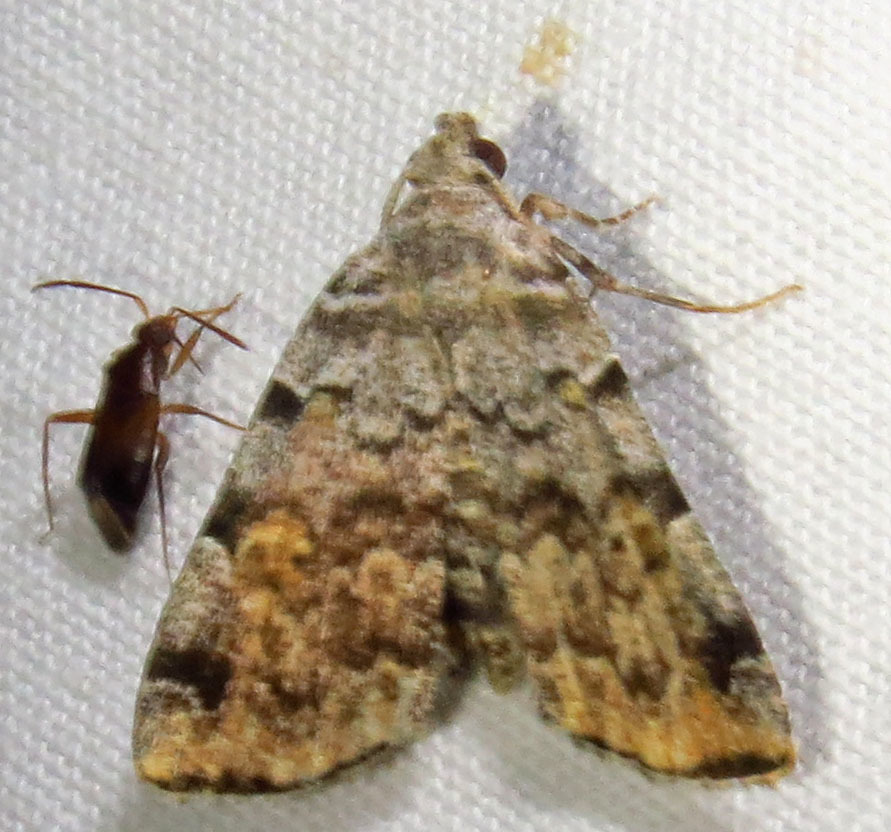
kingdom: Animalia
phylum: Arthropoda
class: Insecta
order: Lepidoptera
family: Erebidae
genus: Idia
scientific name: Idia americalis
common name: American idia moth
